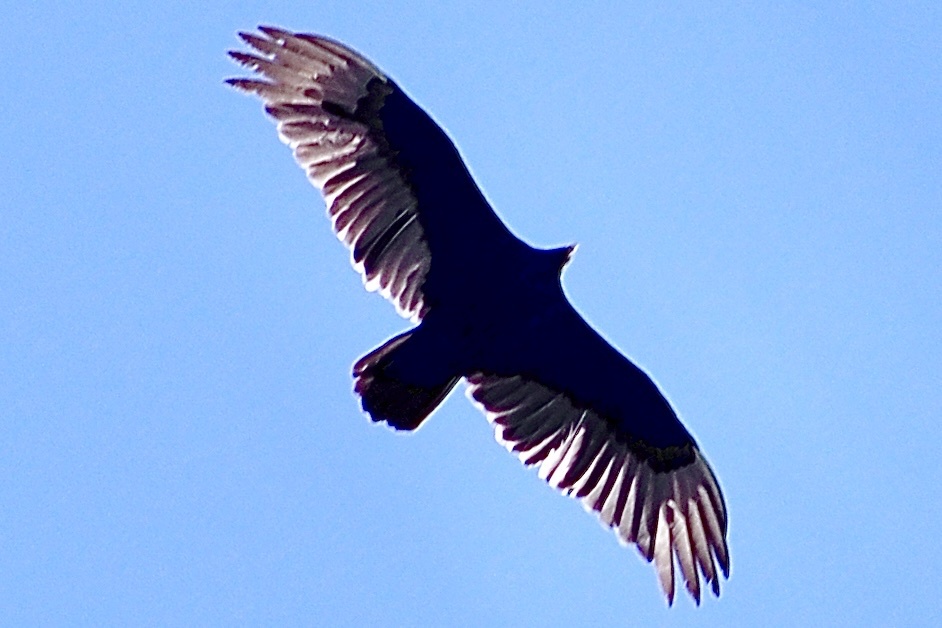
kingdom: Animalia
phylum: Chordata
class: Aves
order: Accipitriformes
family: Cathartidae
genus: Cathartes
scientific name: Cathartes aura
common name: Turkey vulture
